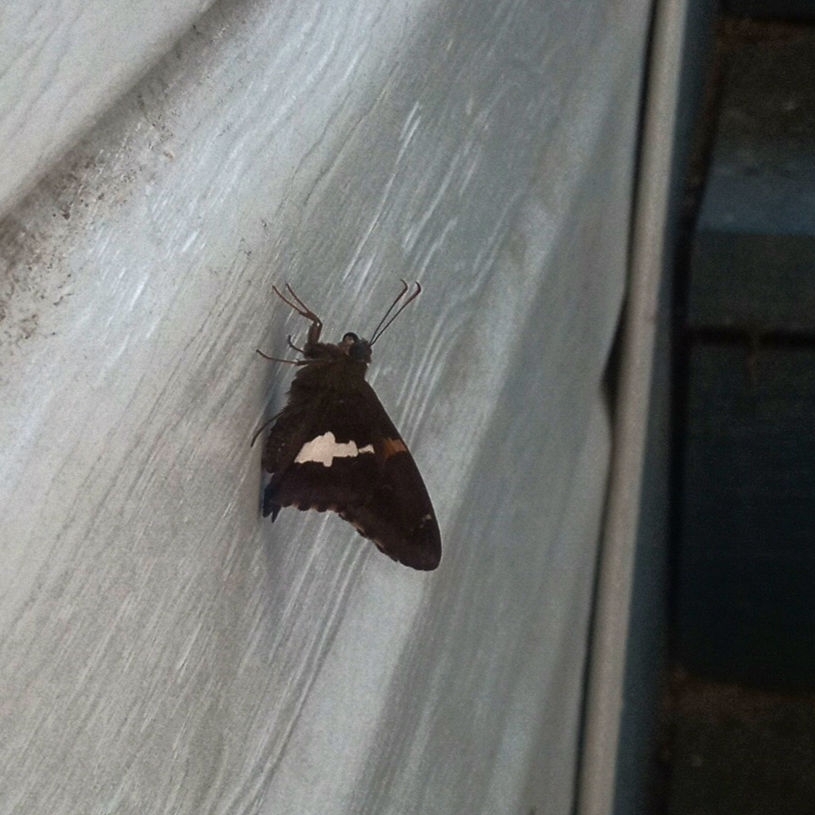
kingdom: Animalia
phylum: Arthropoda
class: Insecta
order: Lepidoptera
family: Hesperiidae
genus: Epargyreus
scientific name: Epargyreus clarus
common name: Silver-spotted skipper
